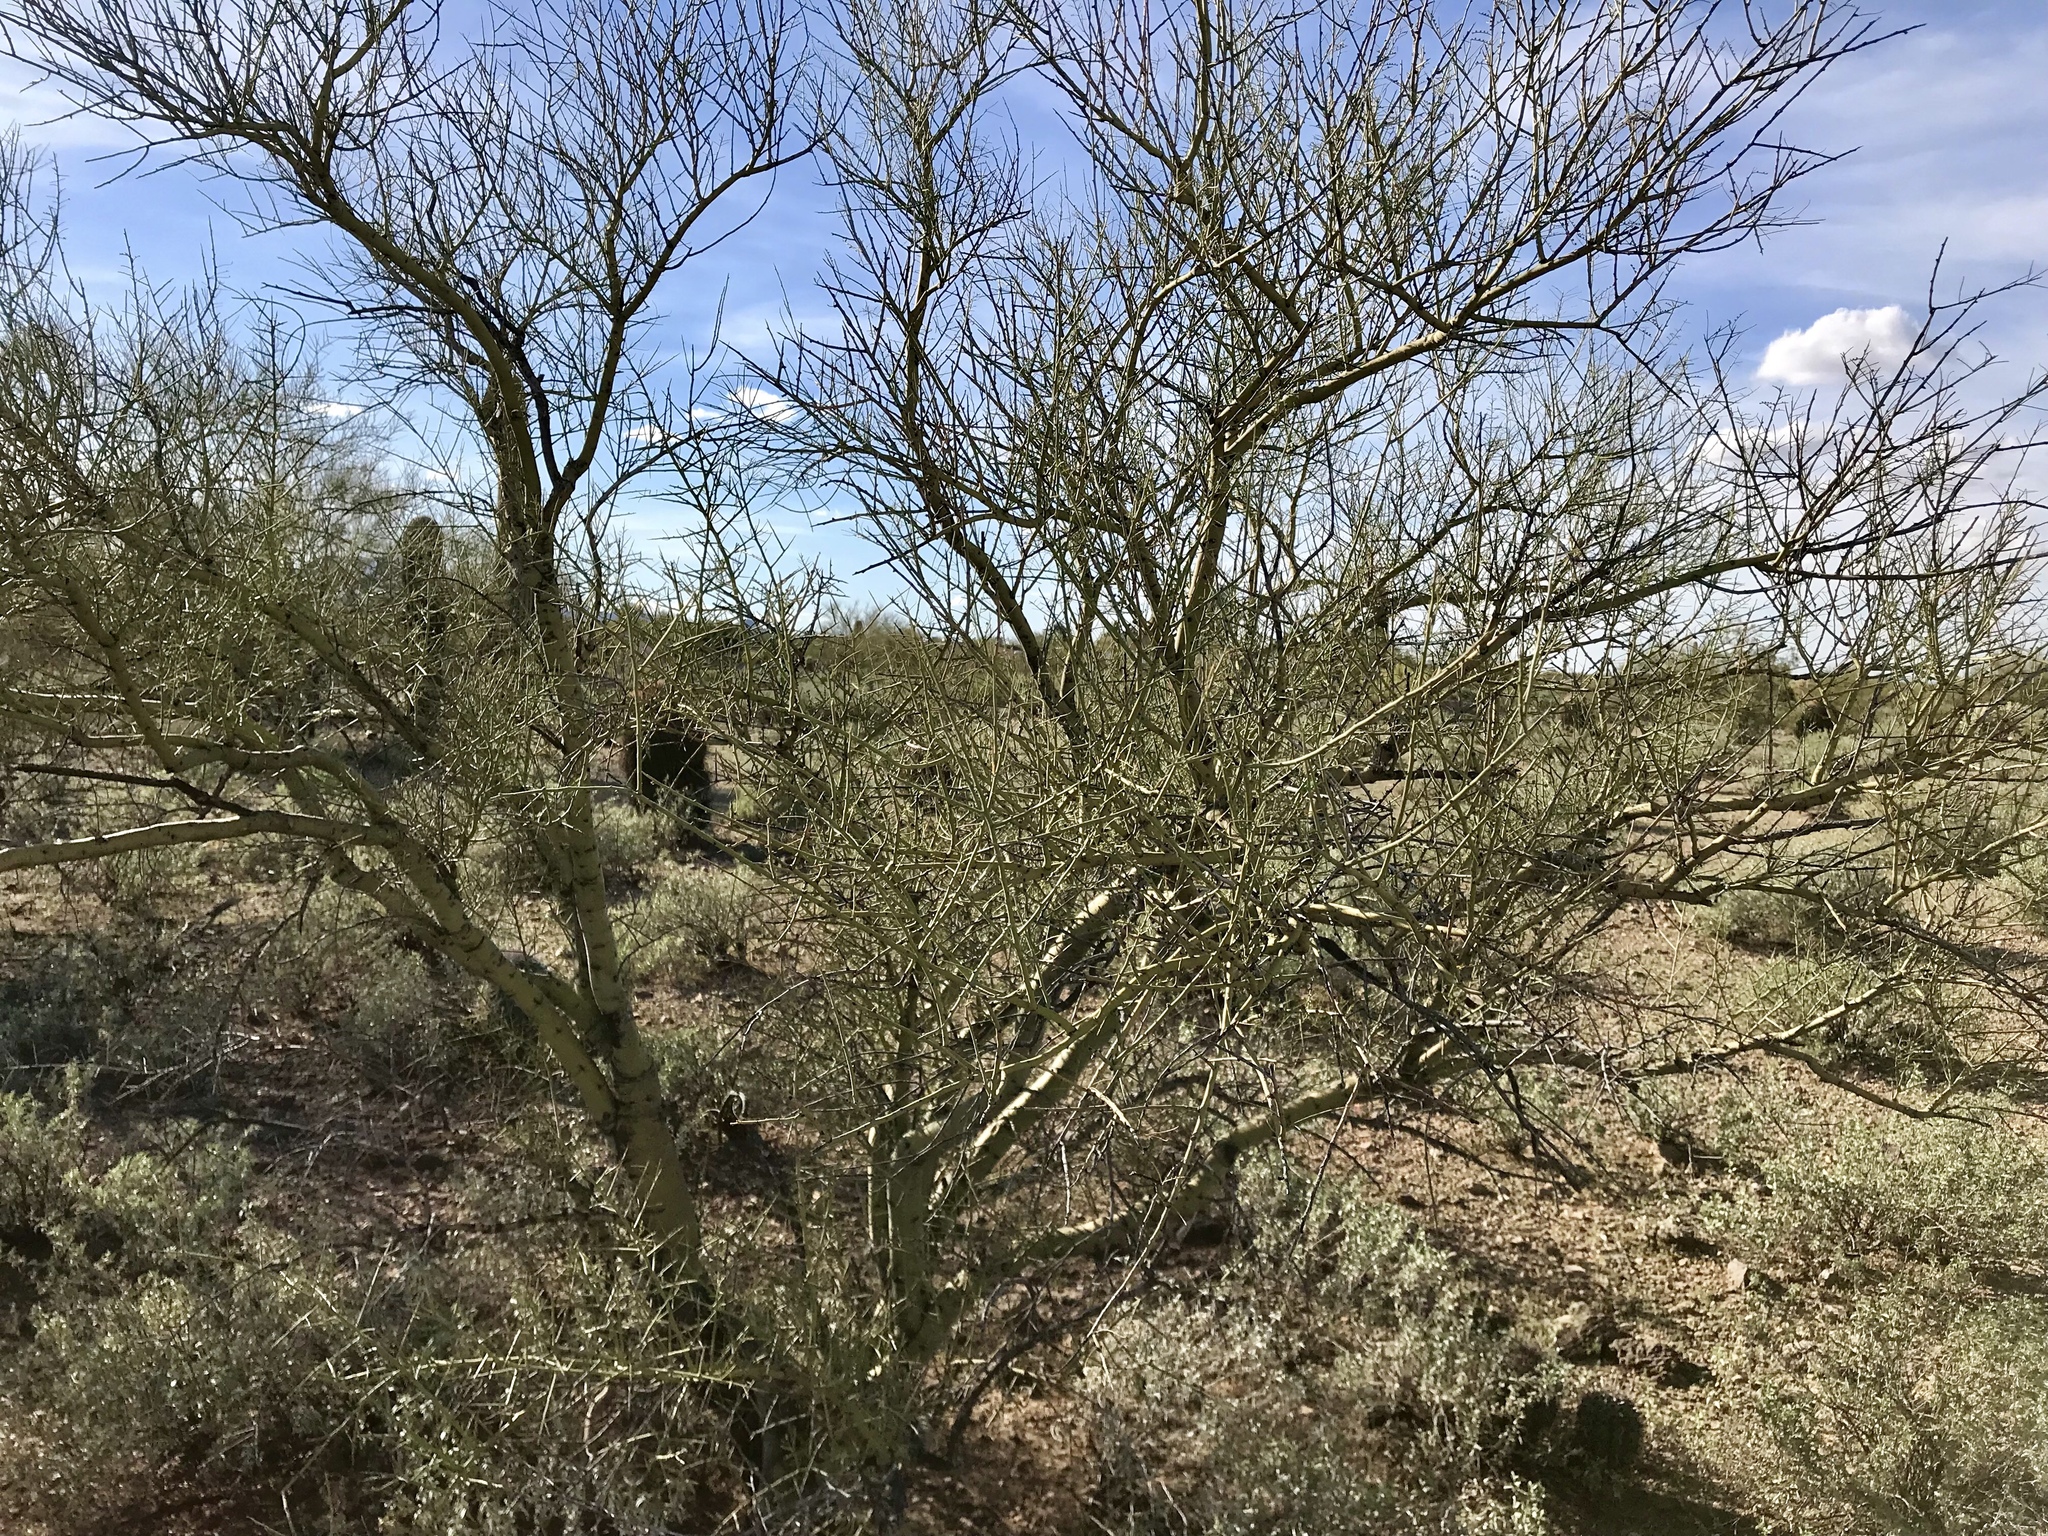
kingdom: Plantae
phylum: Tracheophyta
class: Magnoliopsida
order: Fabales
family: Fabaceae
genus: Parkinsonia
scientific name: Parkinsonia microphylla
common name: Yellow paloverde
